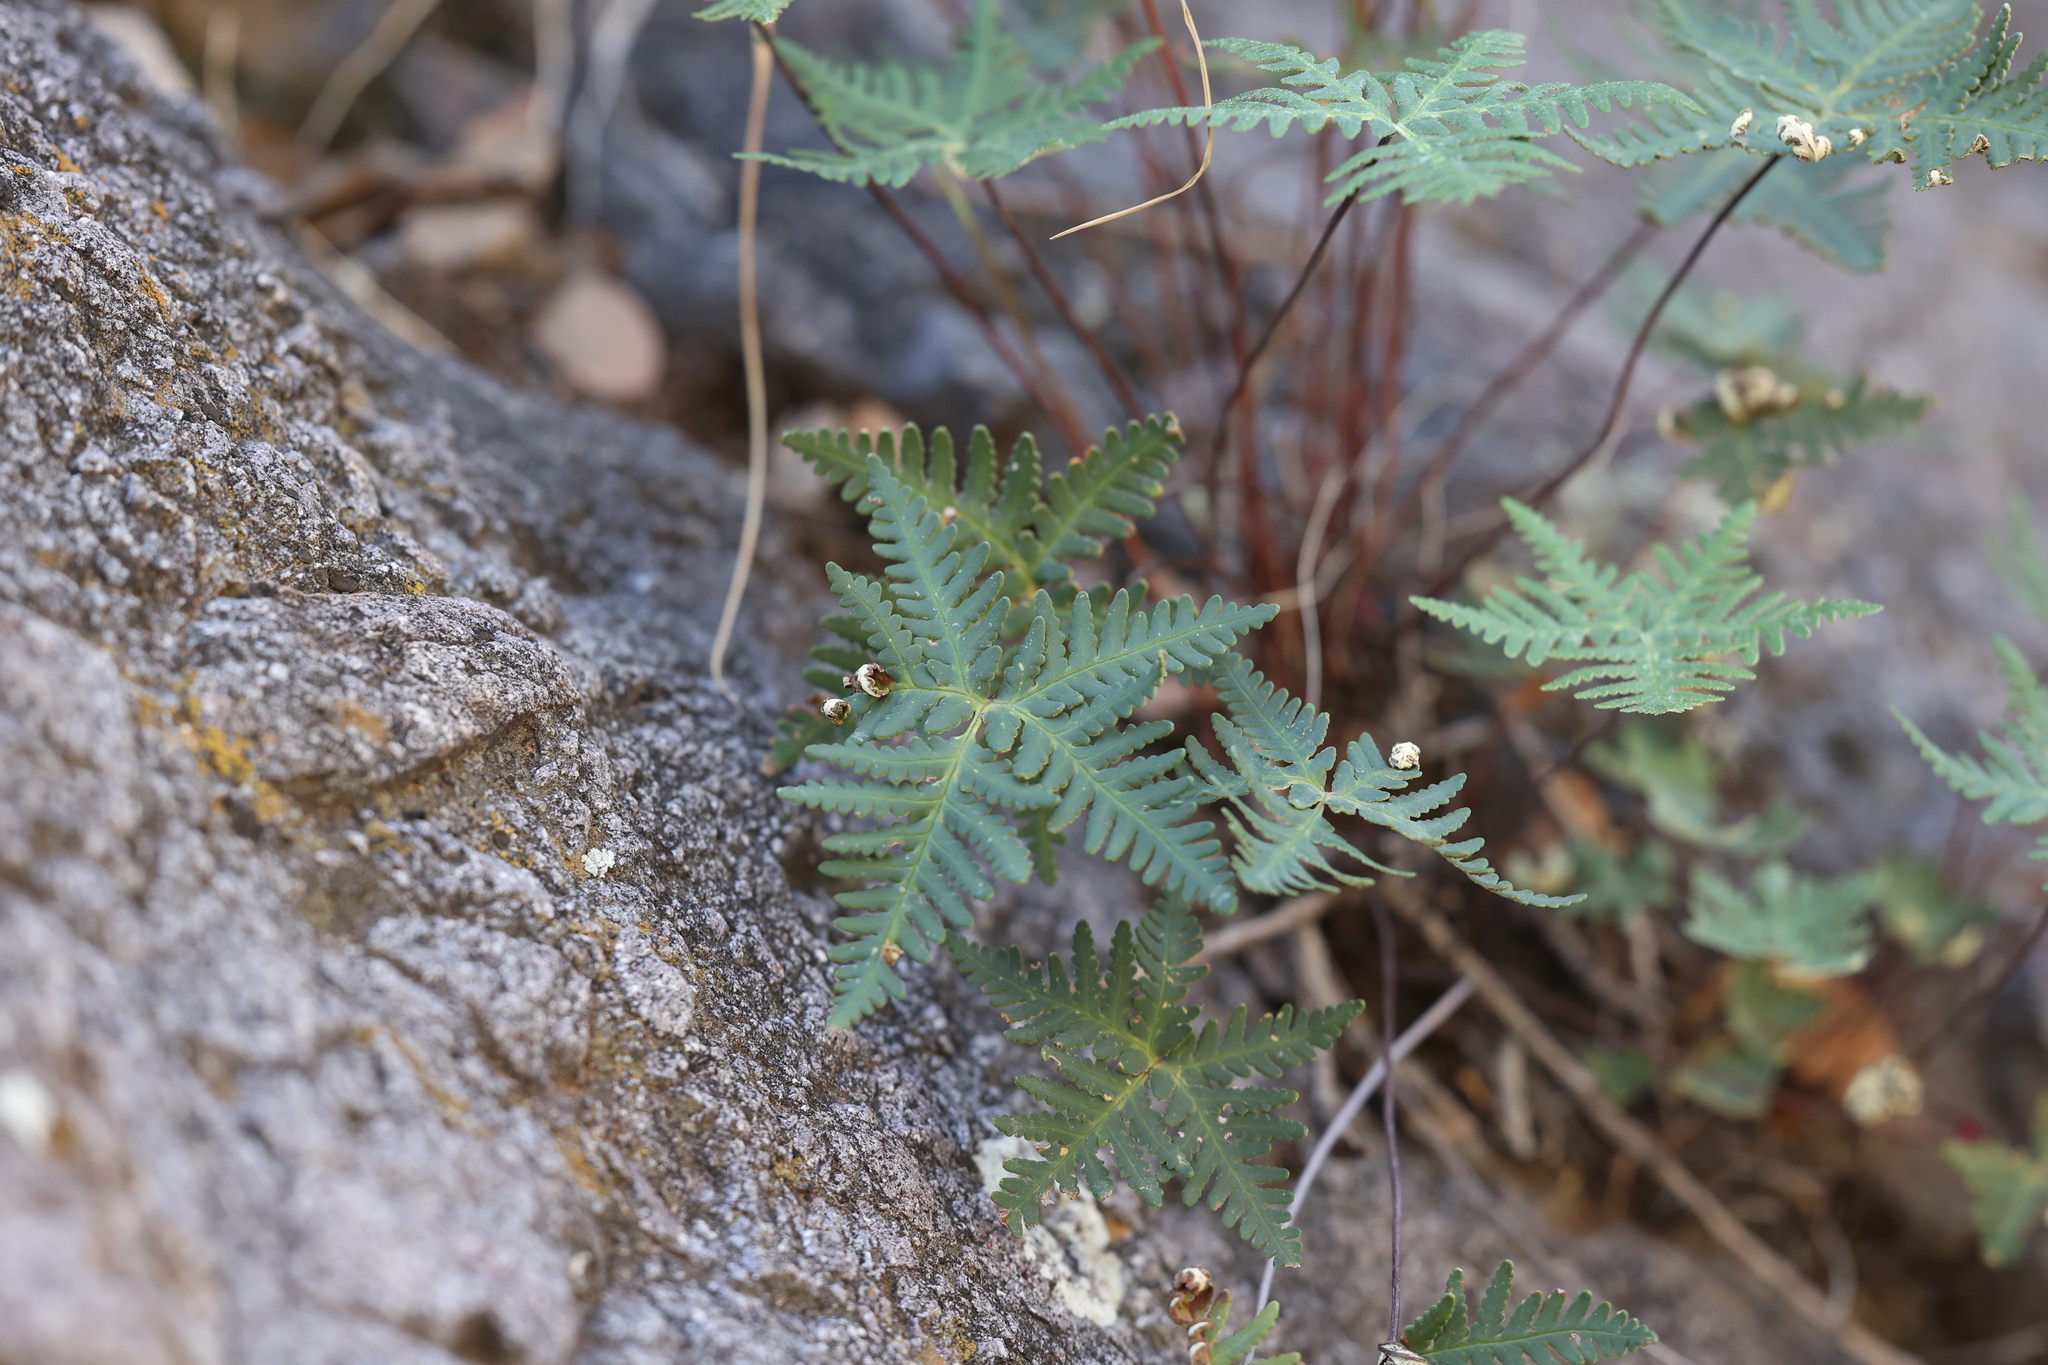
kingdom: Plantae
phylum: Tracheophyta
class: Polypodiopsida
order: Polypodiales
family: Pteridaceae
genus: Notholaena
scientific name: Notholaena standleyi
